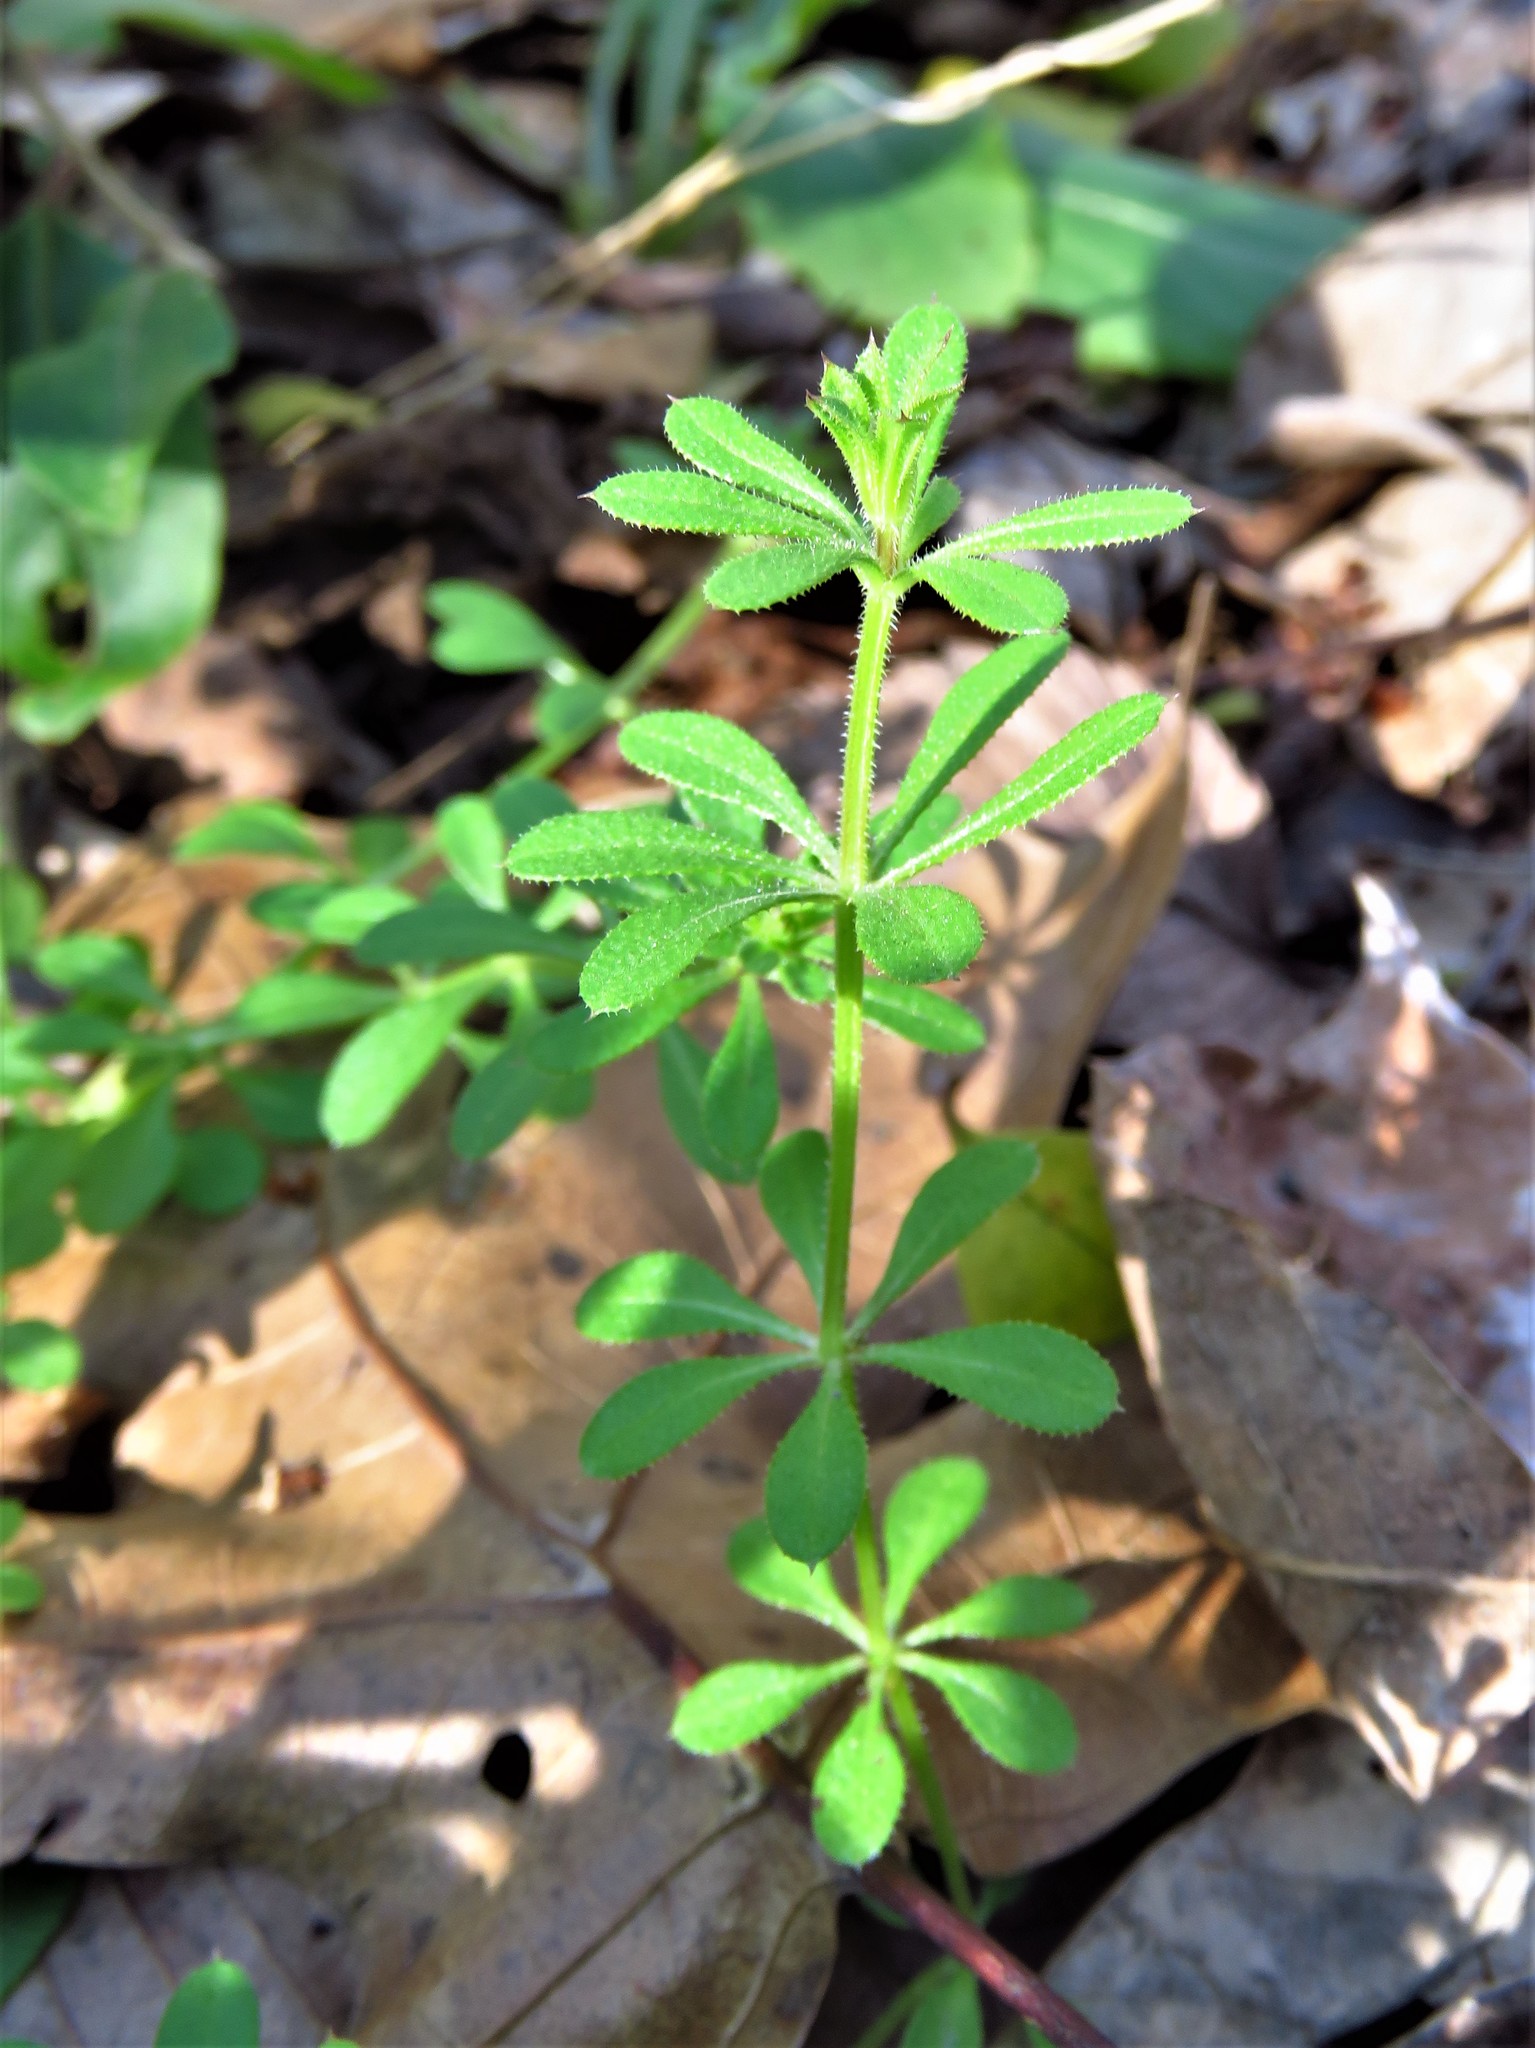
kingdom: Plantae
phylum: Tracheophyta
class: Magnoliopsida
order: Gentianales
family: Rubiaceae
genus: Galium
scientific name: Galium aparine
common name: Cleavers
